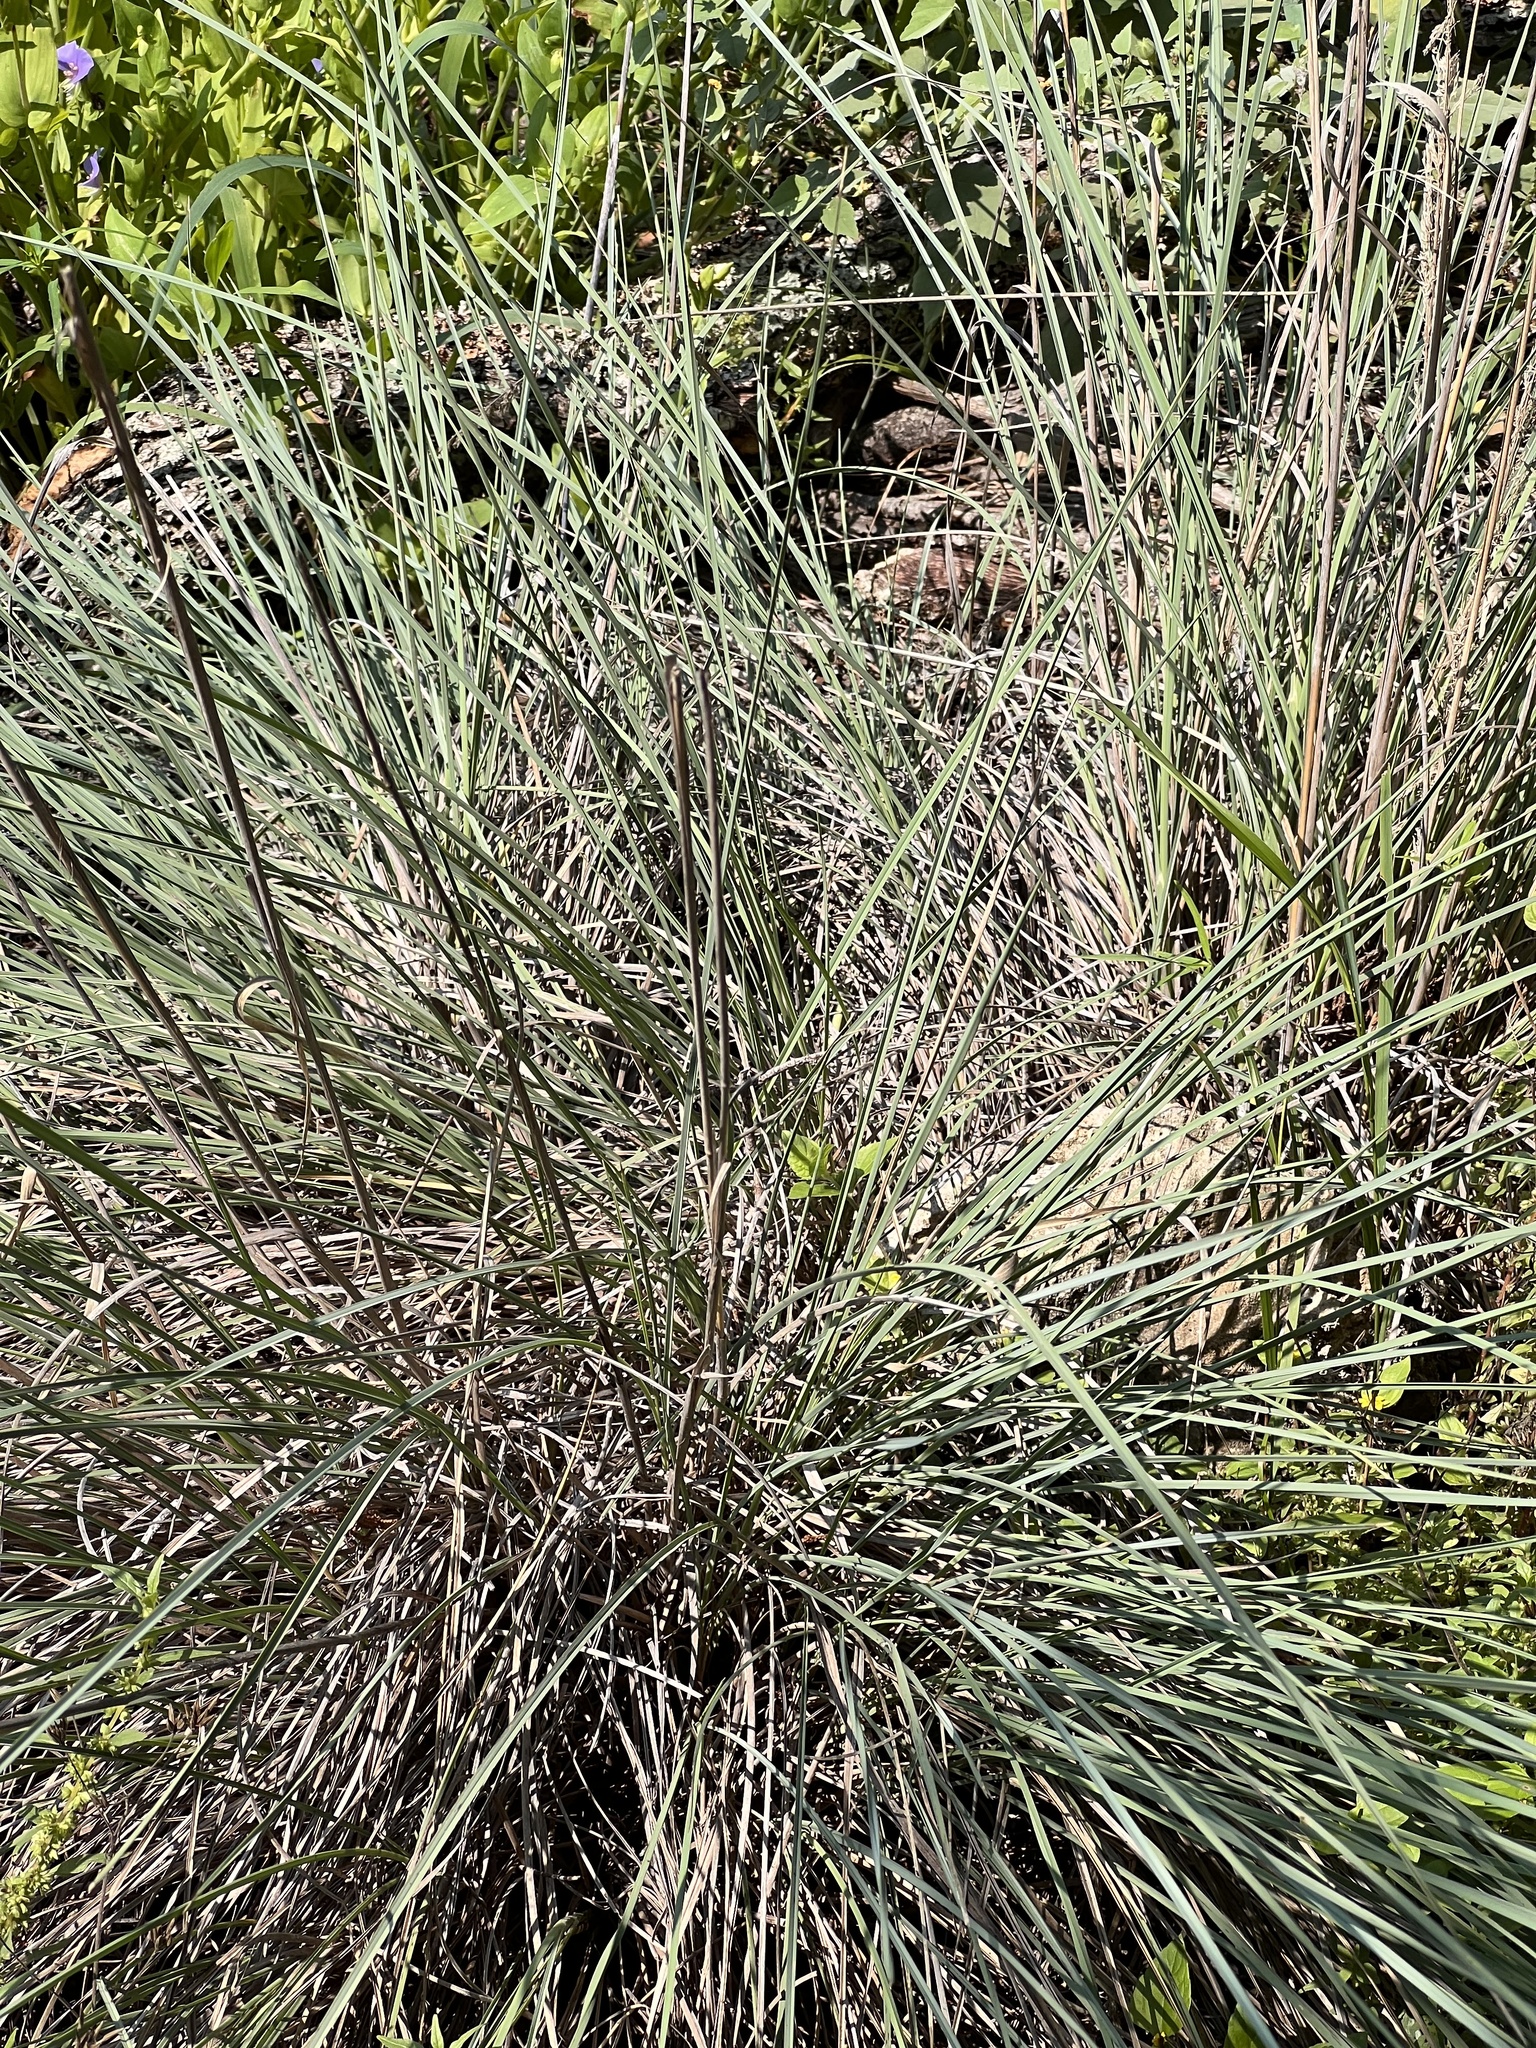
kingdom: Plantae
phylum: Tracheophyta
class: Liliopsida
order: Poales
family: Poaceae
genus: Muhlenbergia
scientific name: Muhlenbergia lindheimeri
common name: Lindheimer's muhly
